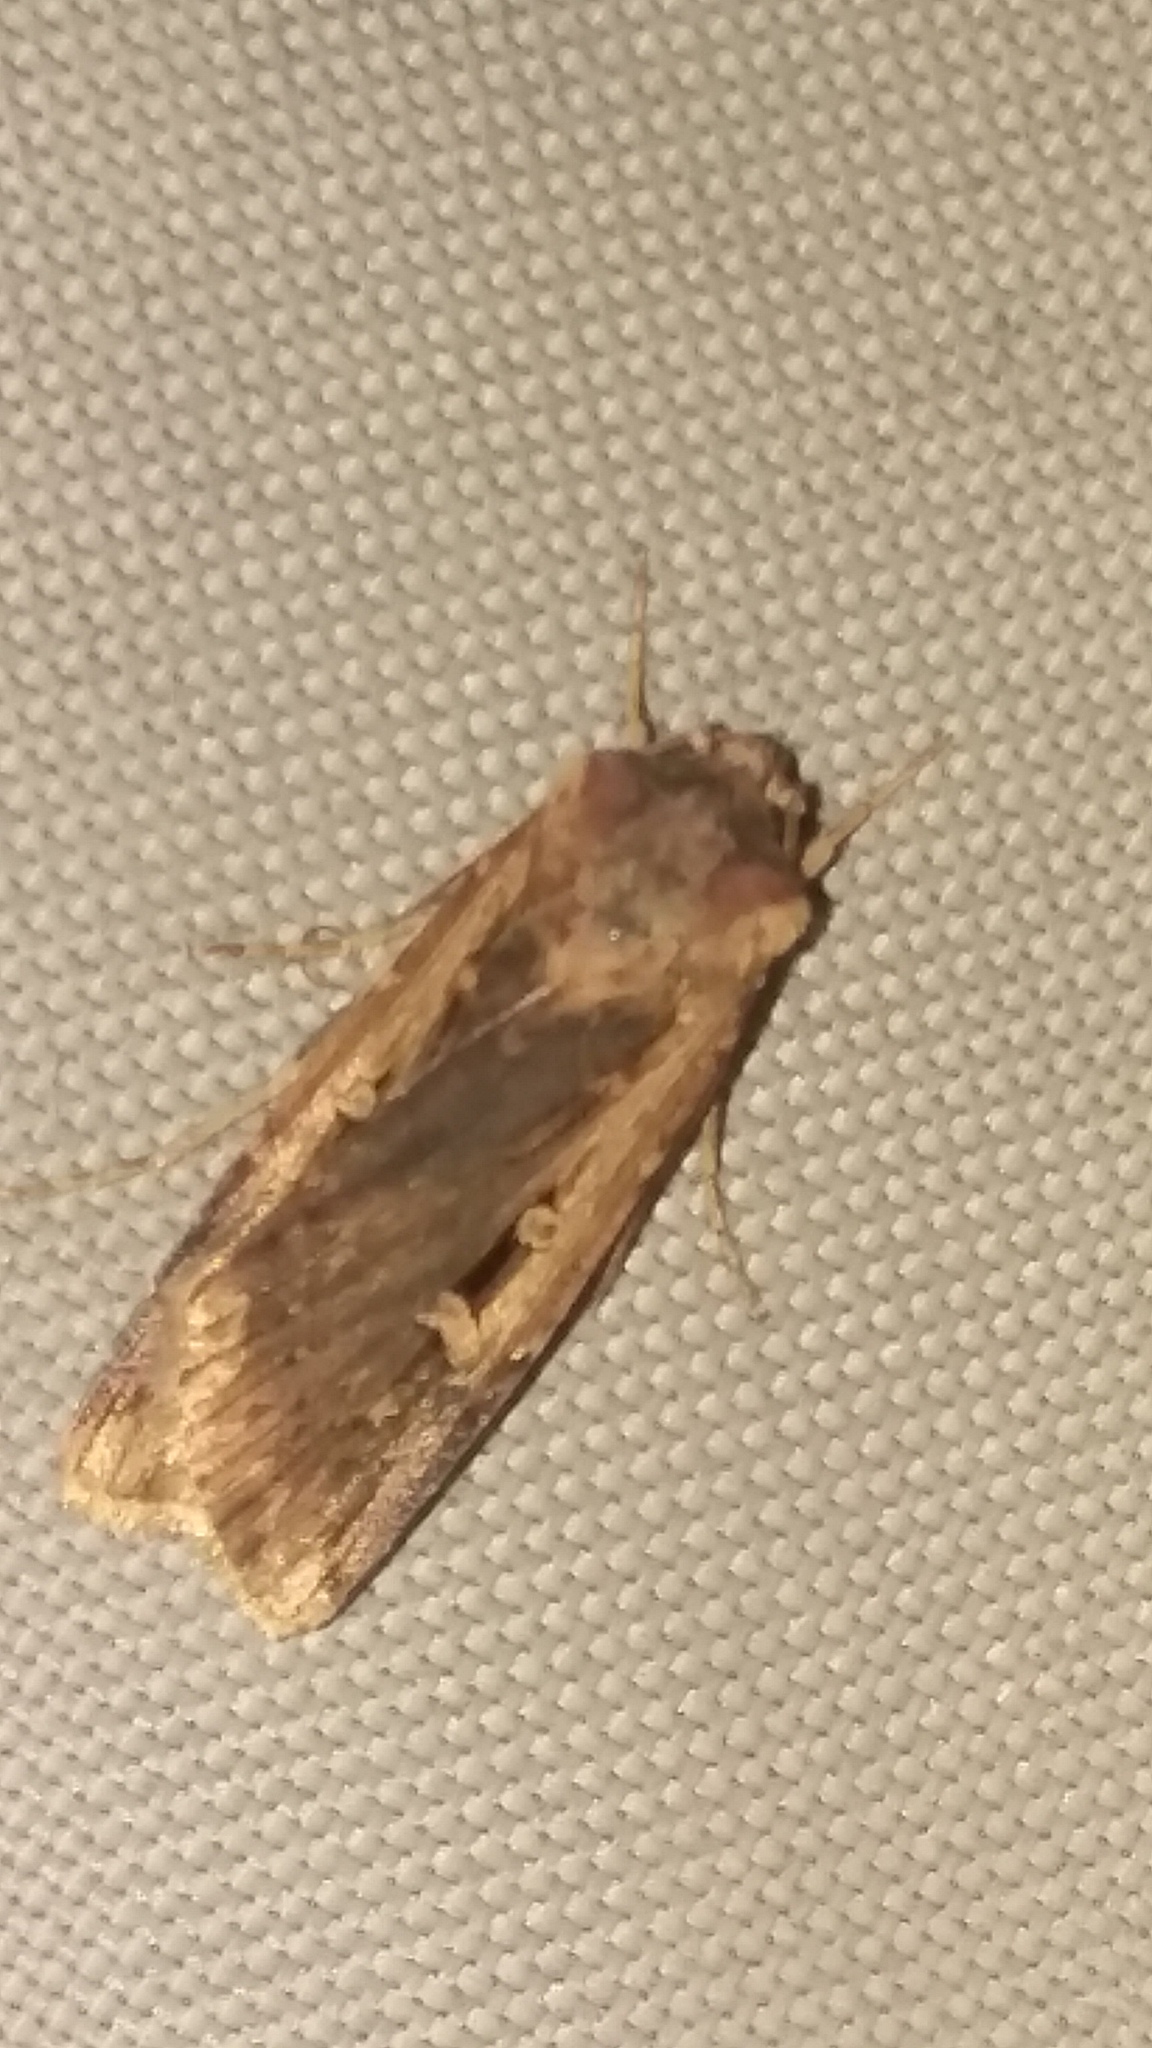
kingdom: Animalia
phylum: Arthropoda
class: Insecta
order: Lepidoptera
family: Noctuidae
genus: Feltia
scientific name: Feltia subterranea
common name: Granulate cutworm
